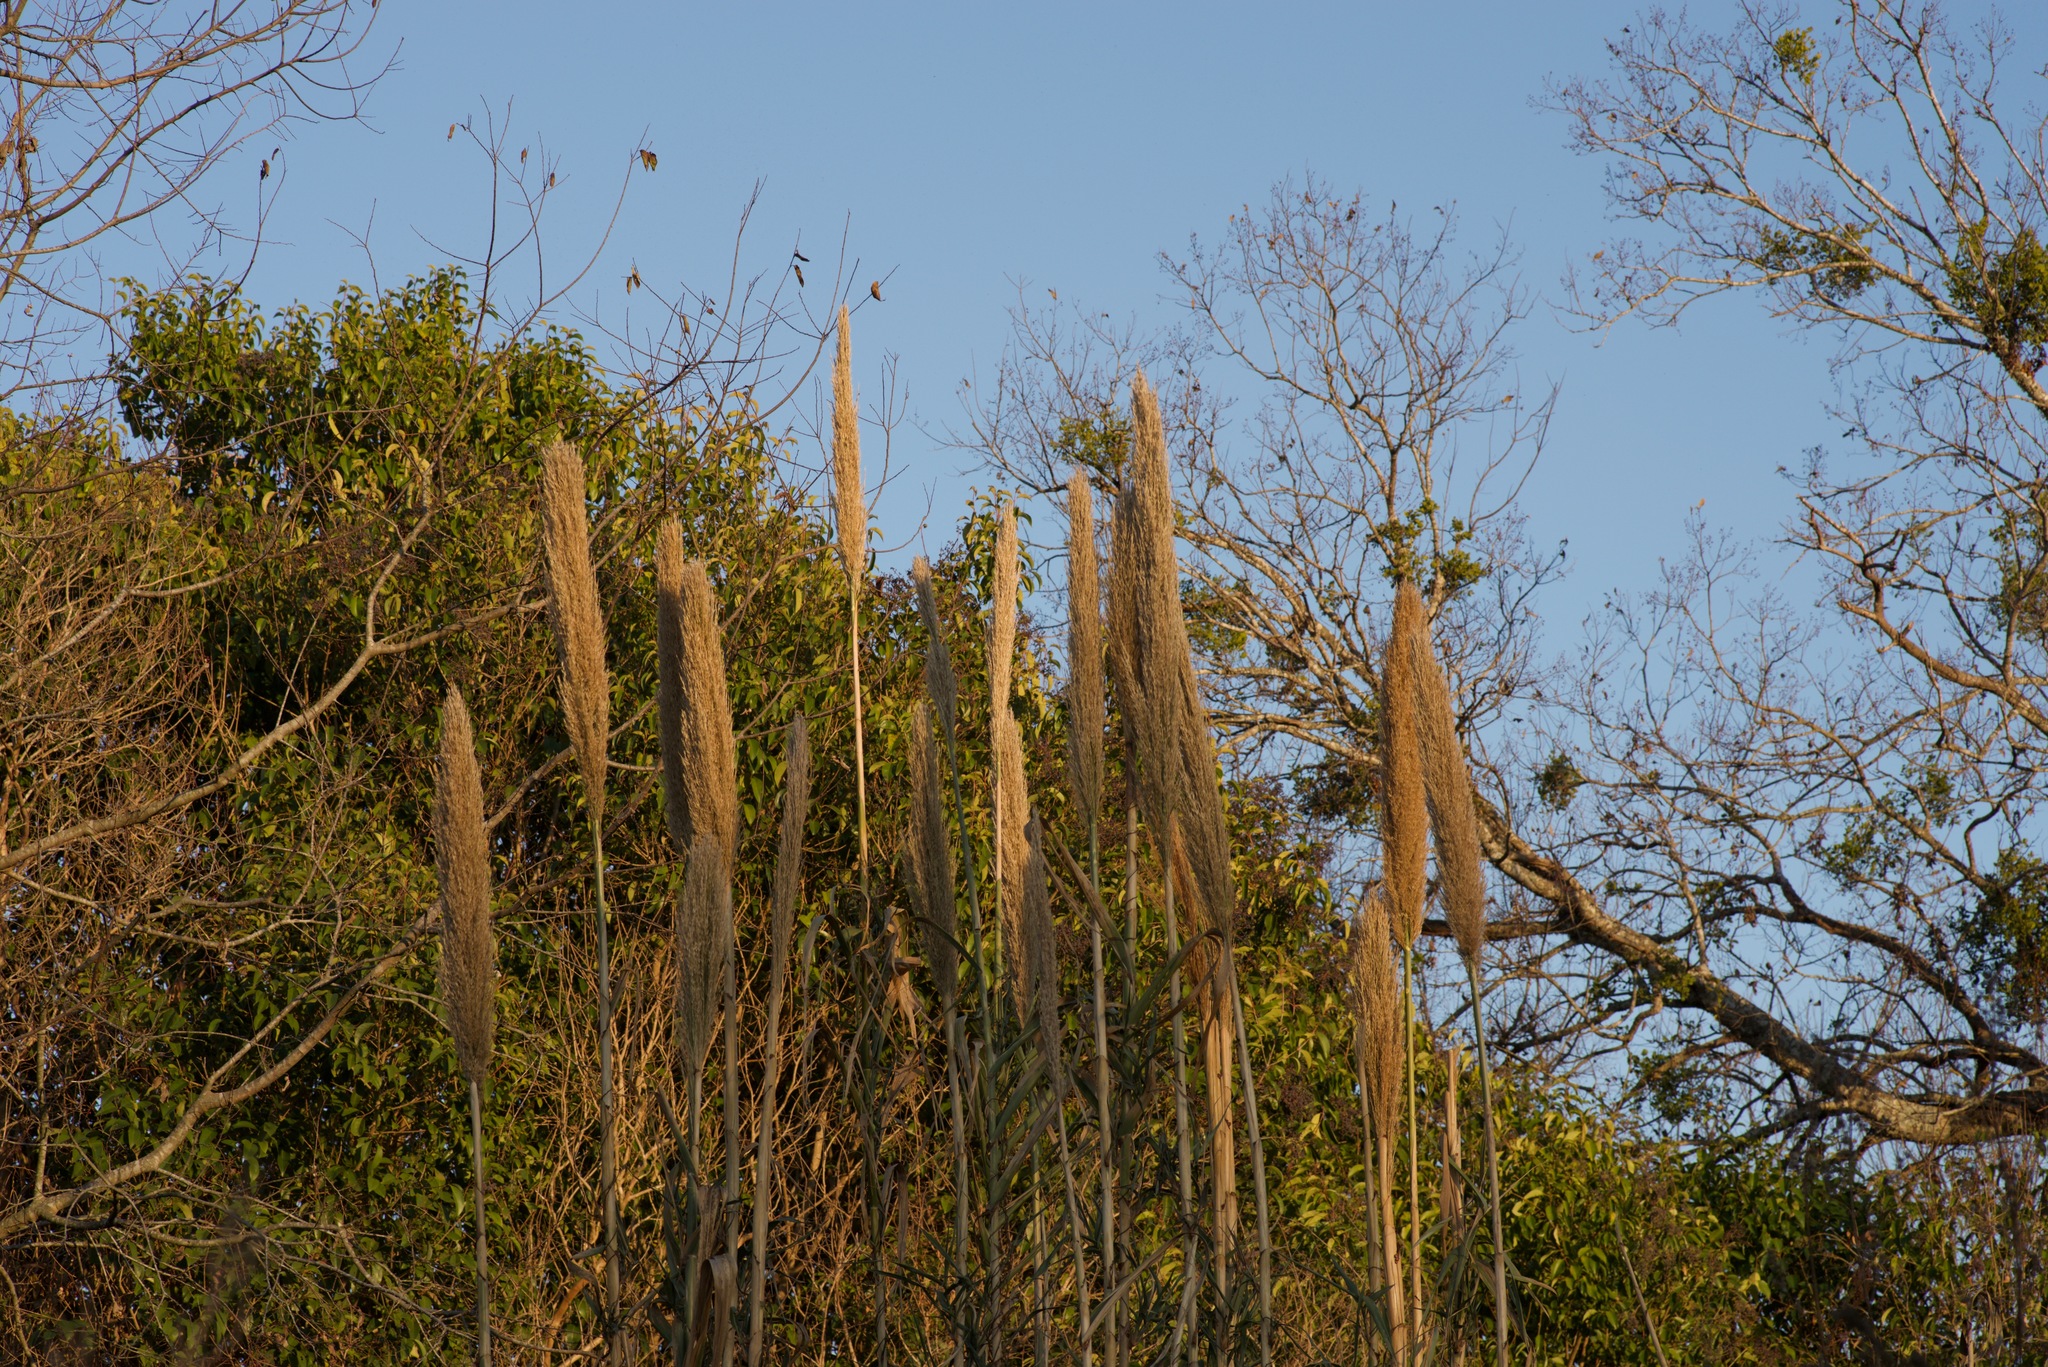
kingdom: Plantae
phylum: Tracheophyta
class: Liliopsida
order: Poales
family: Poaceae
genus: Arundo
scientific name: Arundo donax
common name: Giant reed
